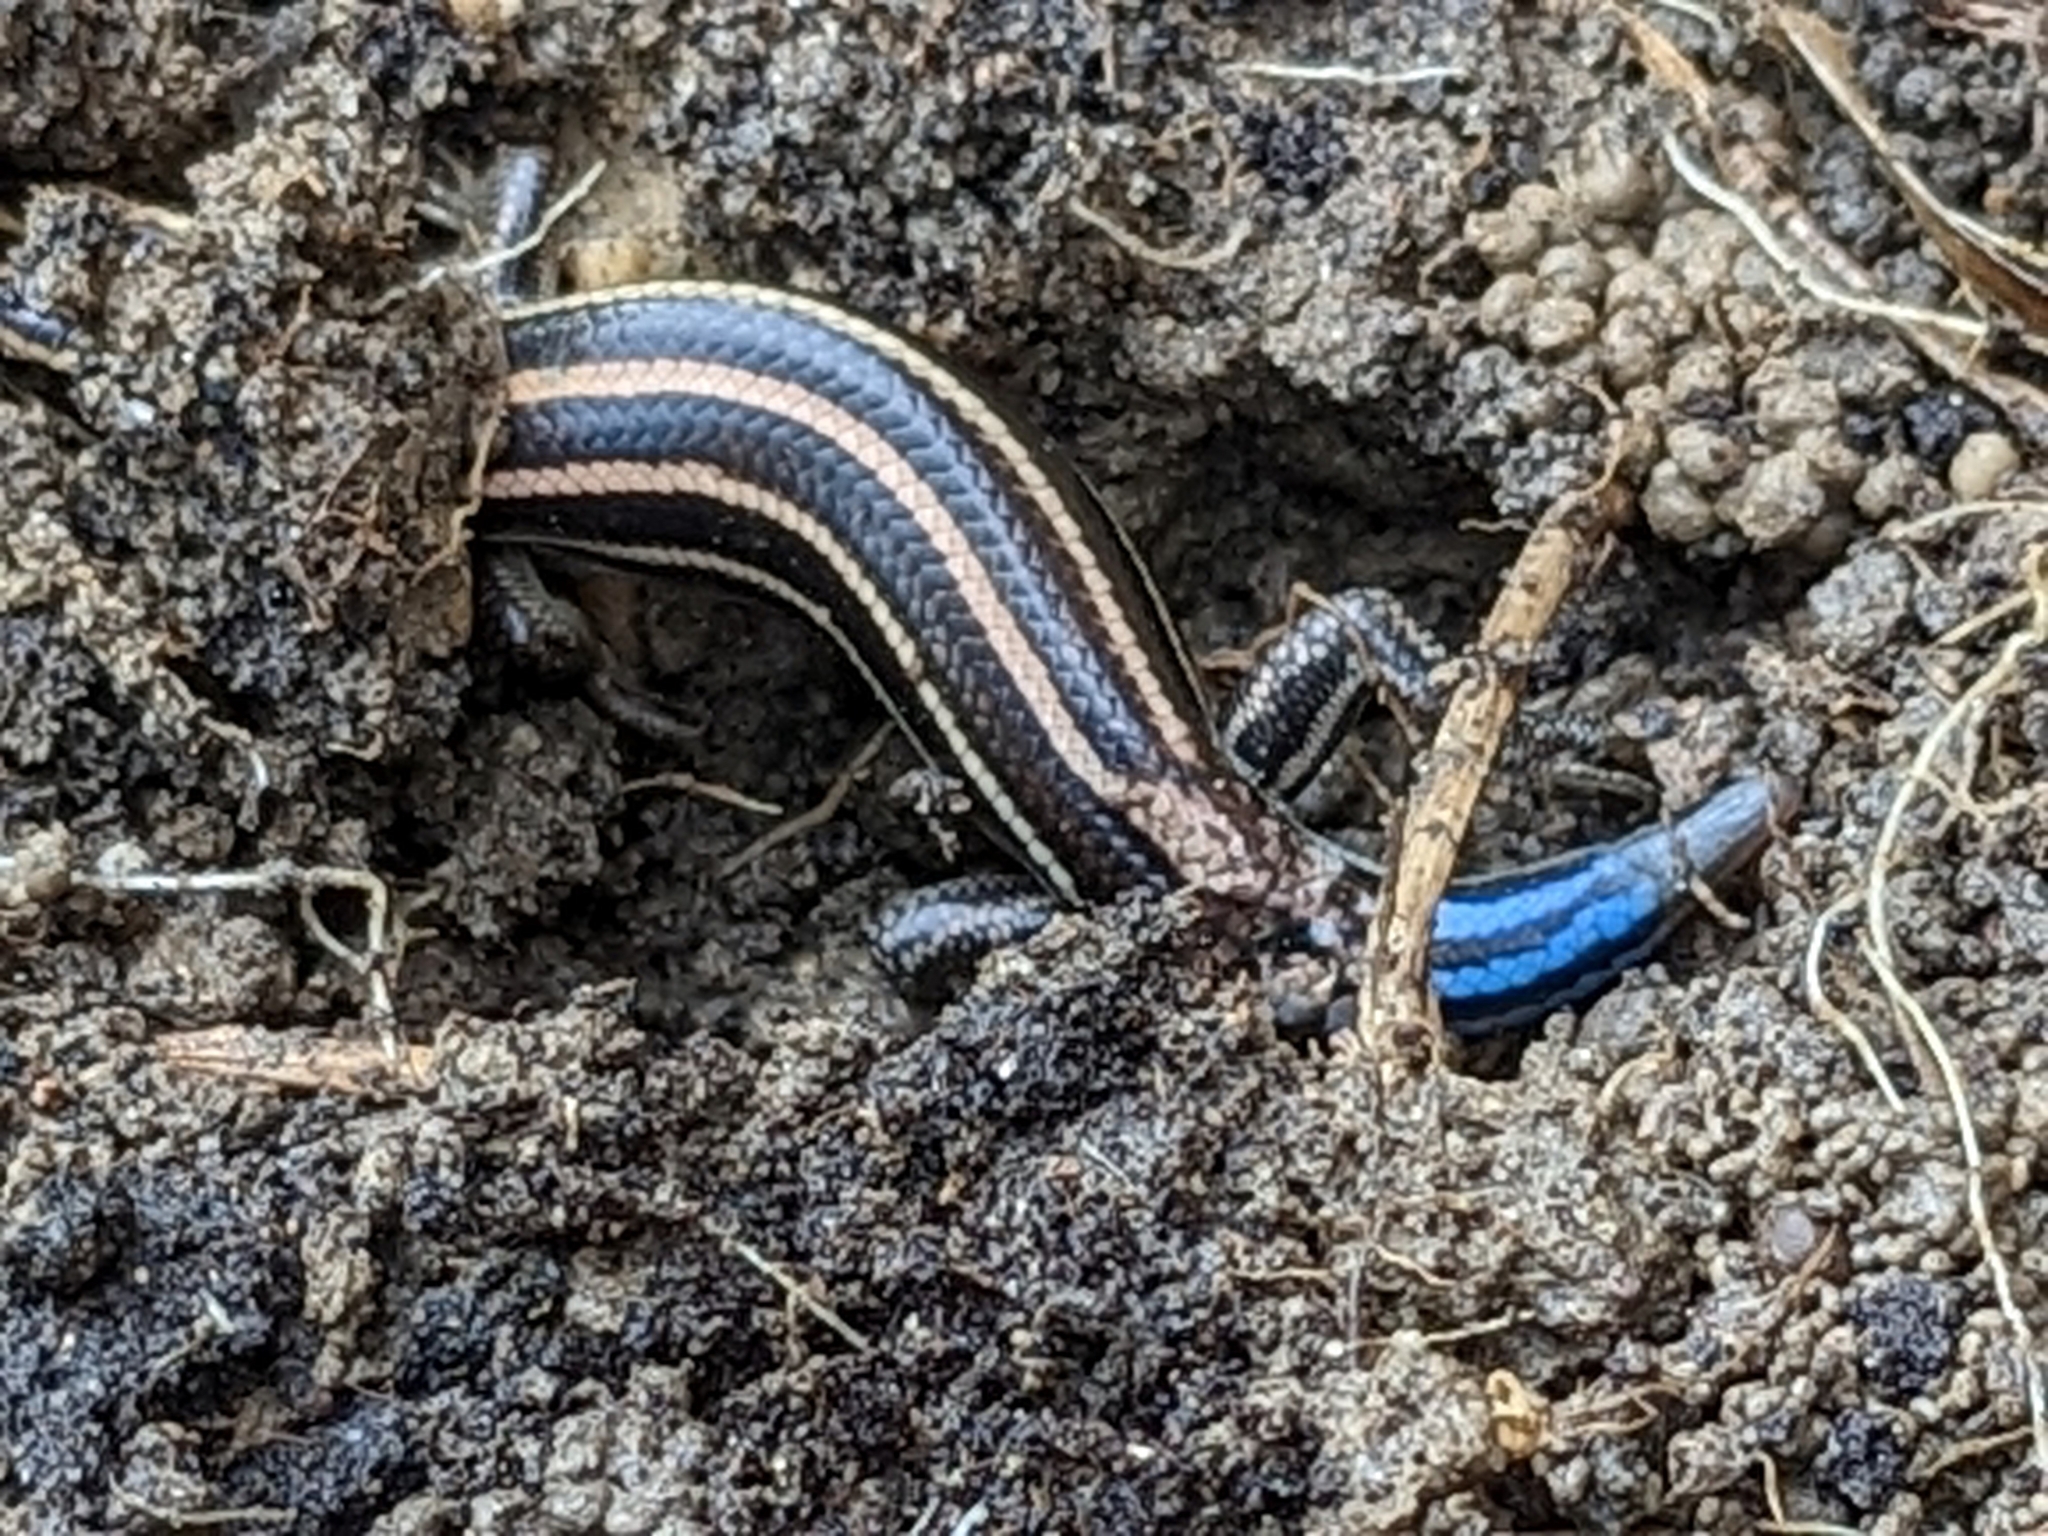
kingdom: Animalia
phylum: Chordata
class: Squamata
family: Scincidae
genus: Plestiodon
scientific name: Plestiodon fasciatus
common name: Five-lined skink
